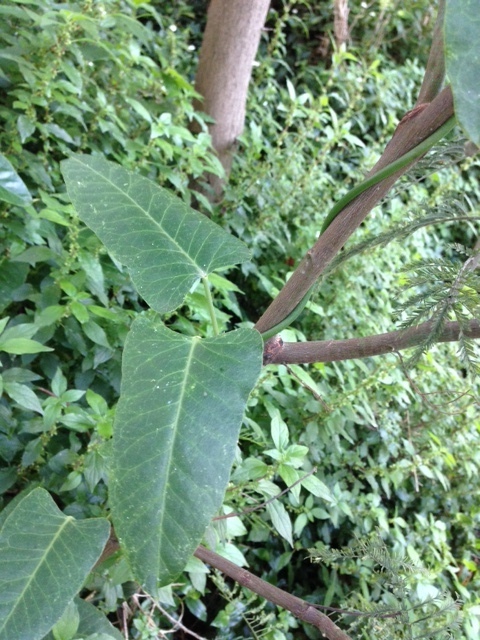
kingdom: Plantae
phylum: Tracheophyta
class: Magnoliopsida
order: Gentianales
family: Apocynaceae
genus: Araujia
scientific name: Araujia sericifera
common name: White bladderflower
